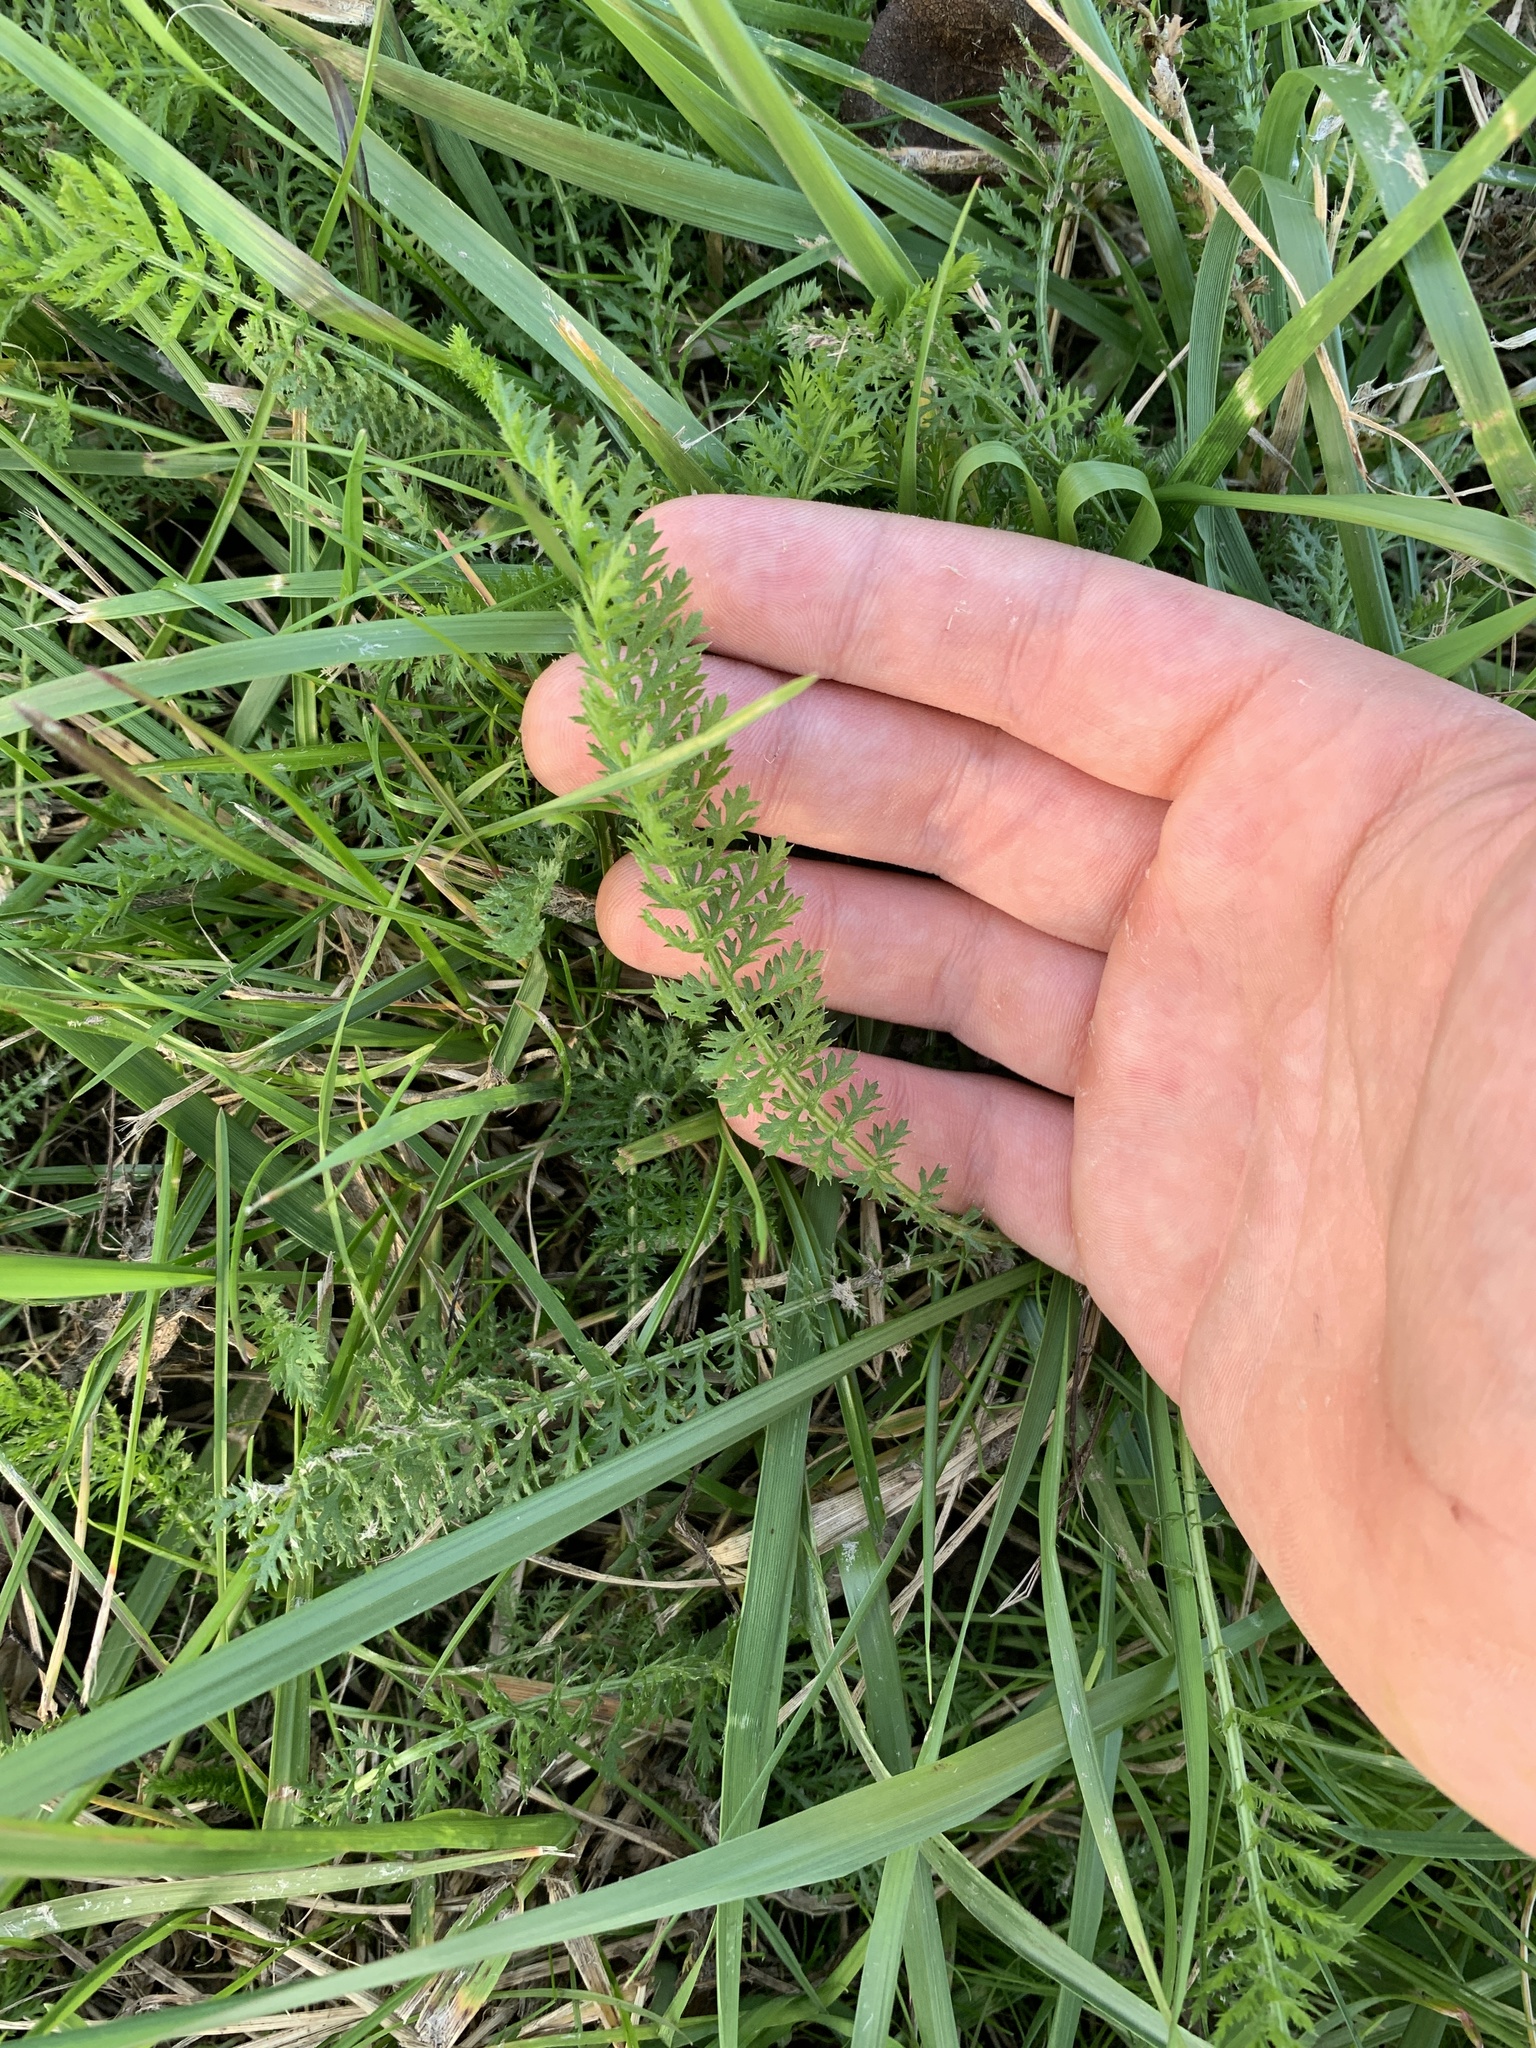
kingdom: Plantae
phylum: Tracheophyta
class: Magnoliopsida
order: Asterales
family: Asteraceae
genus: Achillea
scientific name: Achillea millefolium
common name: Yarrow
